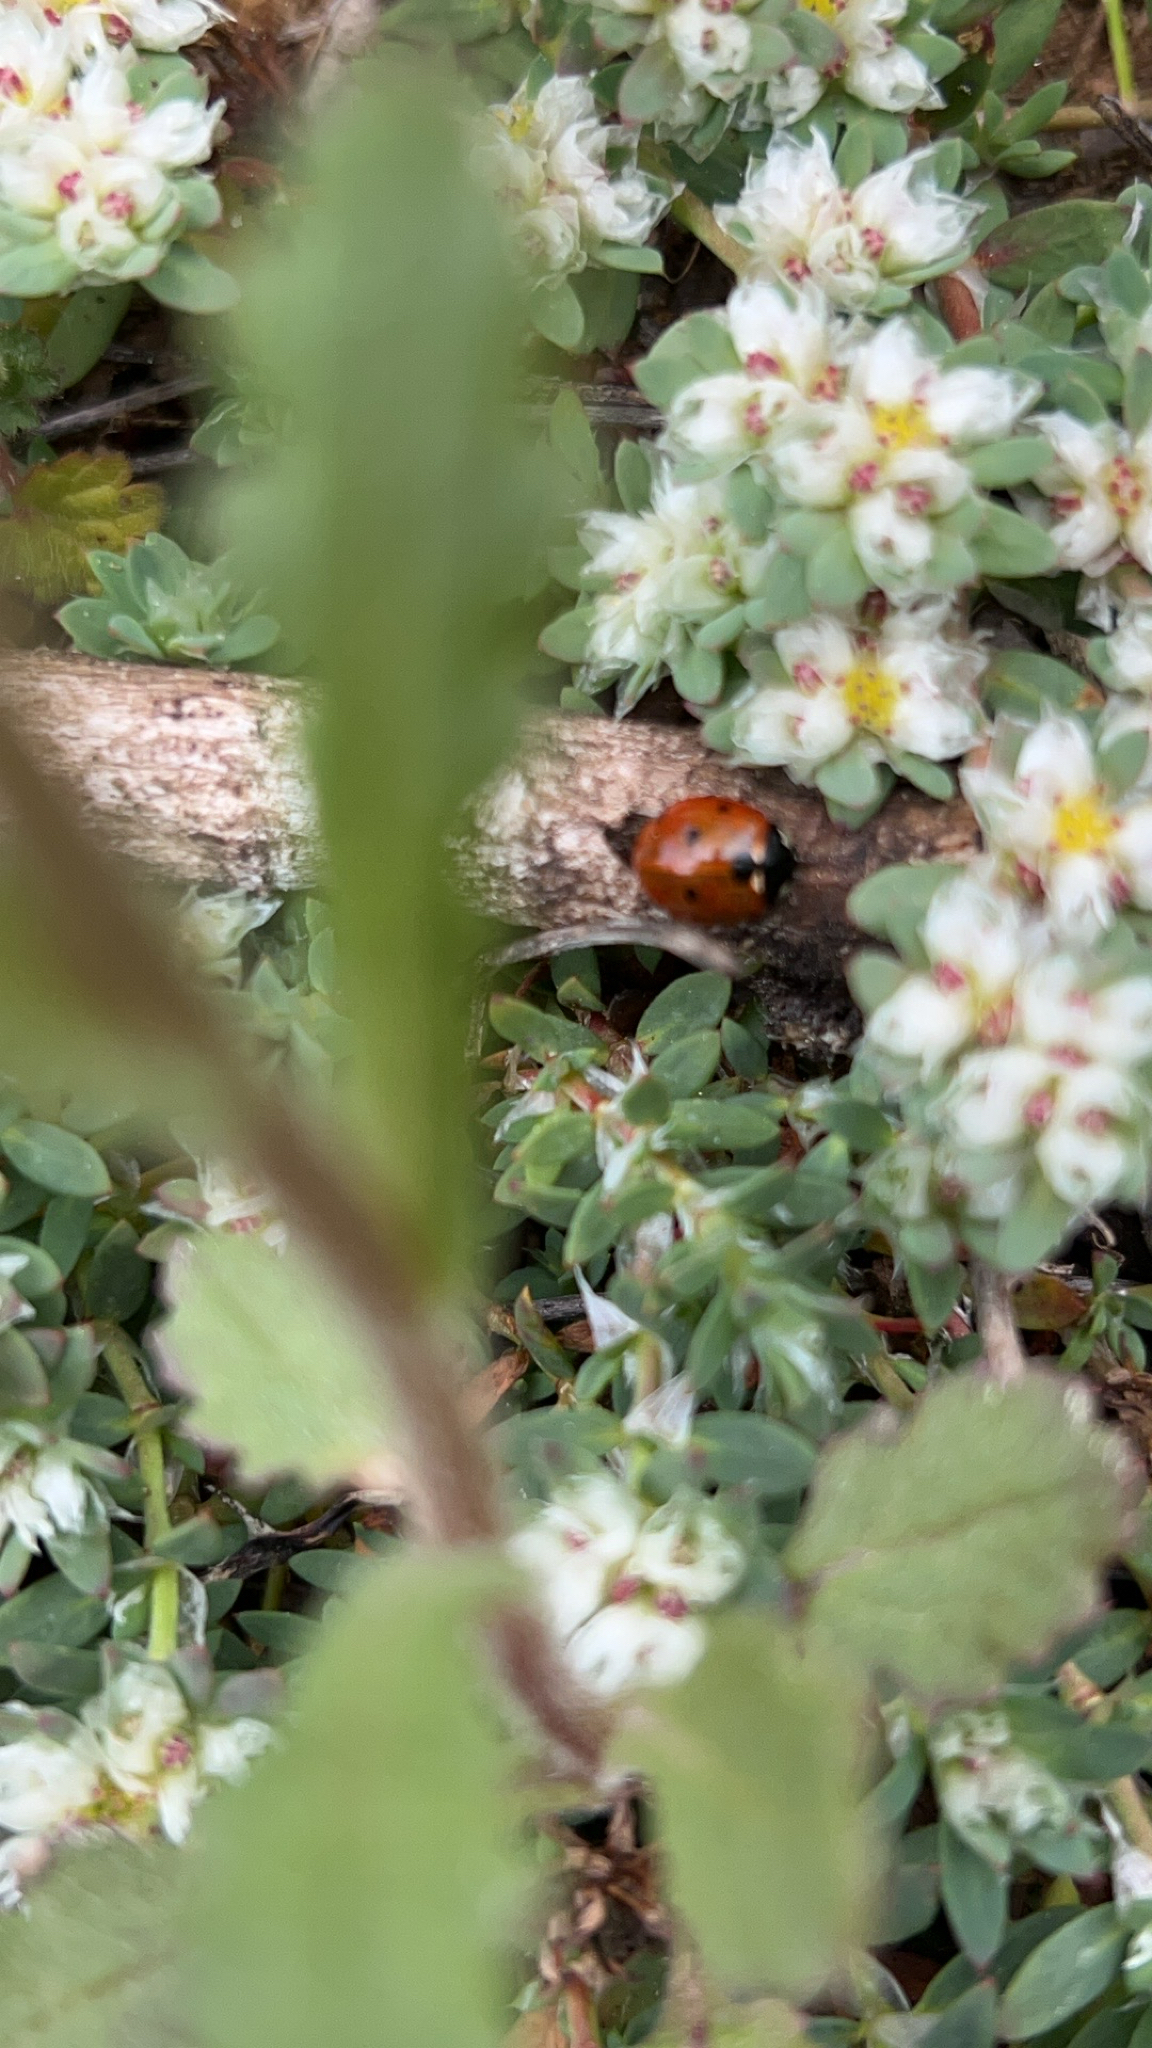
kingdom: Animalia
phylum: Arthropoda
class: Insecta
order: Coleoptera
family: Coccinellidae
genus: Coccinella
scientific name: Coccinella septempunctata
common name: Sevenspotted lady beetle
